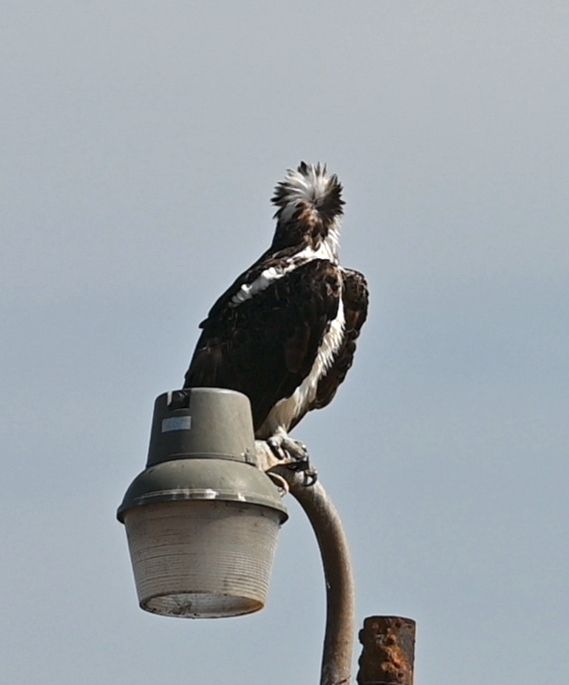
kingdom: Animalia
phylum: Chordata
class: Aves
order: Accipitriformes
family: Pandionidae
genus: Pandion
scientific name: Pandion haliaetus
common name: Osprey
